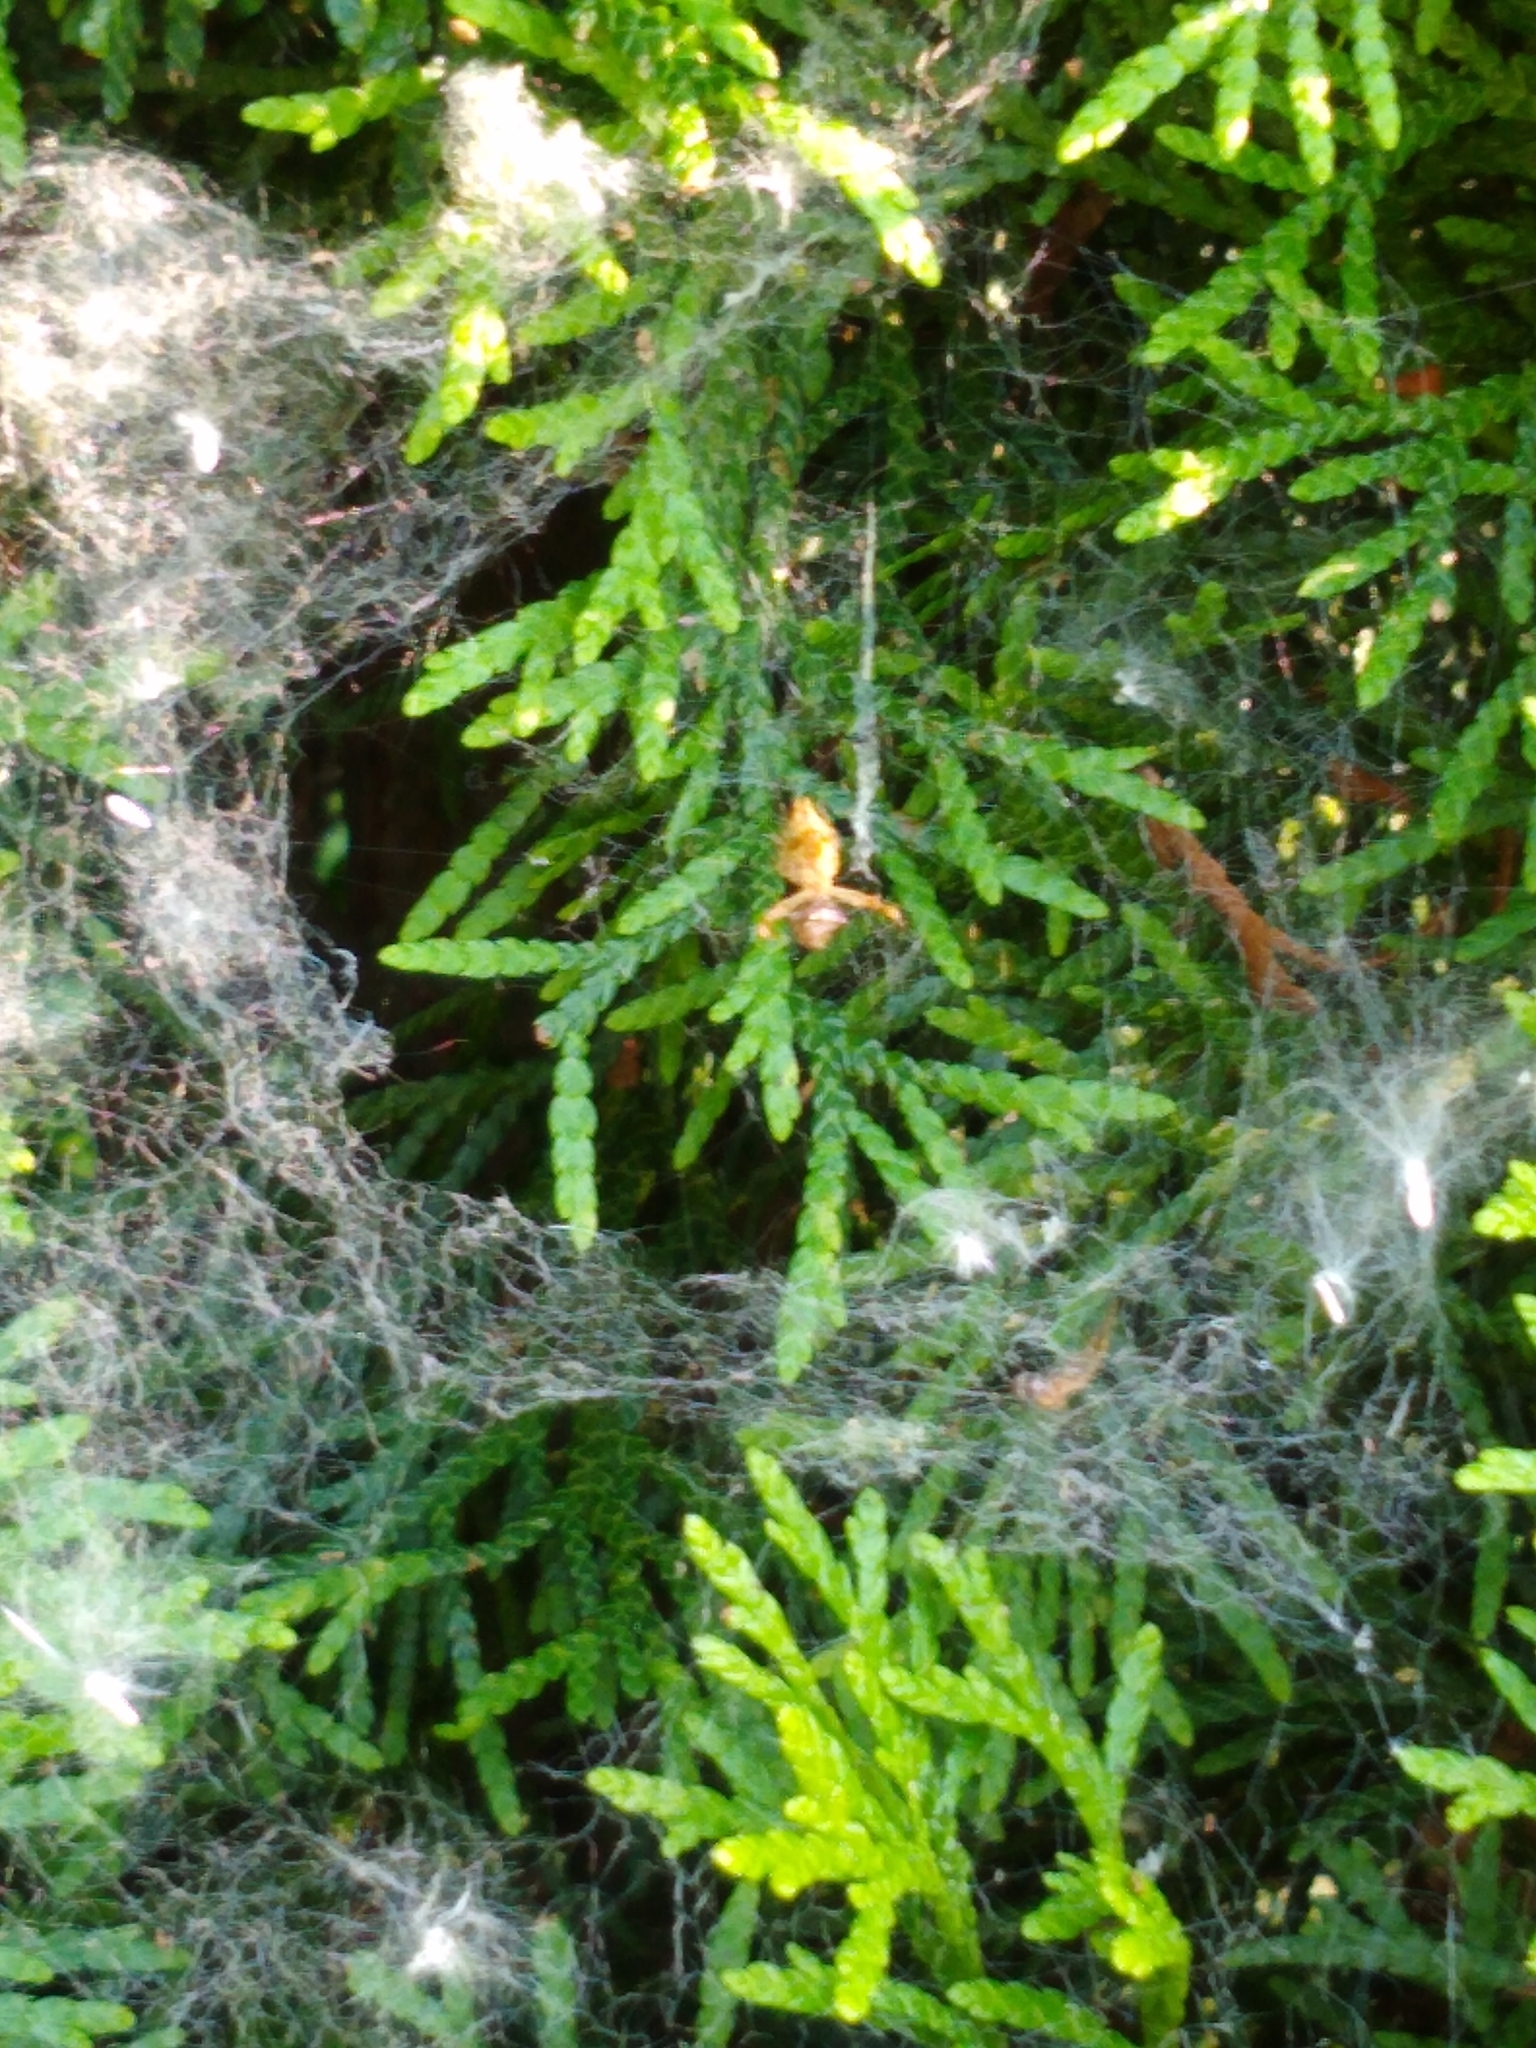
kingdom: Animalia
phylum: Arthropoda
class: Arachnida
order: Araneae
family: Uloboridae
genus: Uloborus
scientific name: Uloborus glomosus
